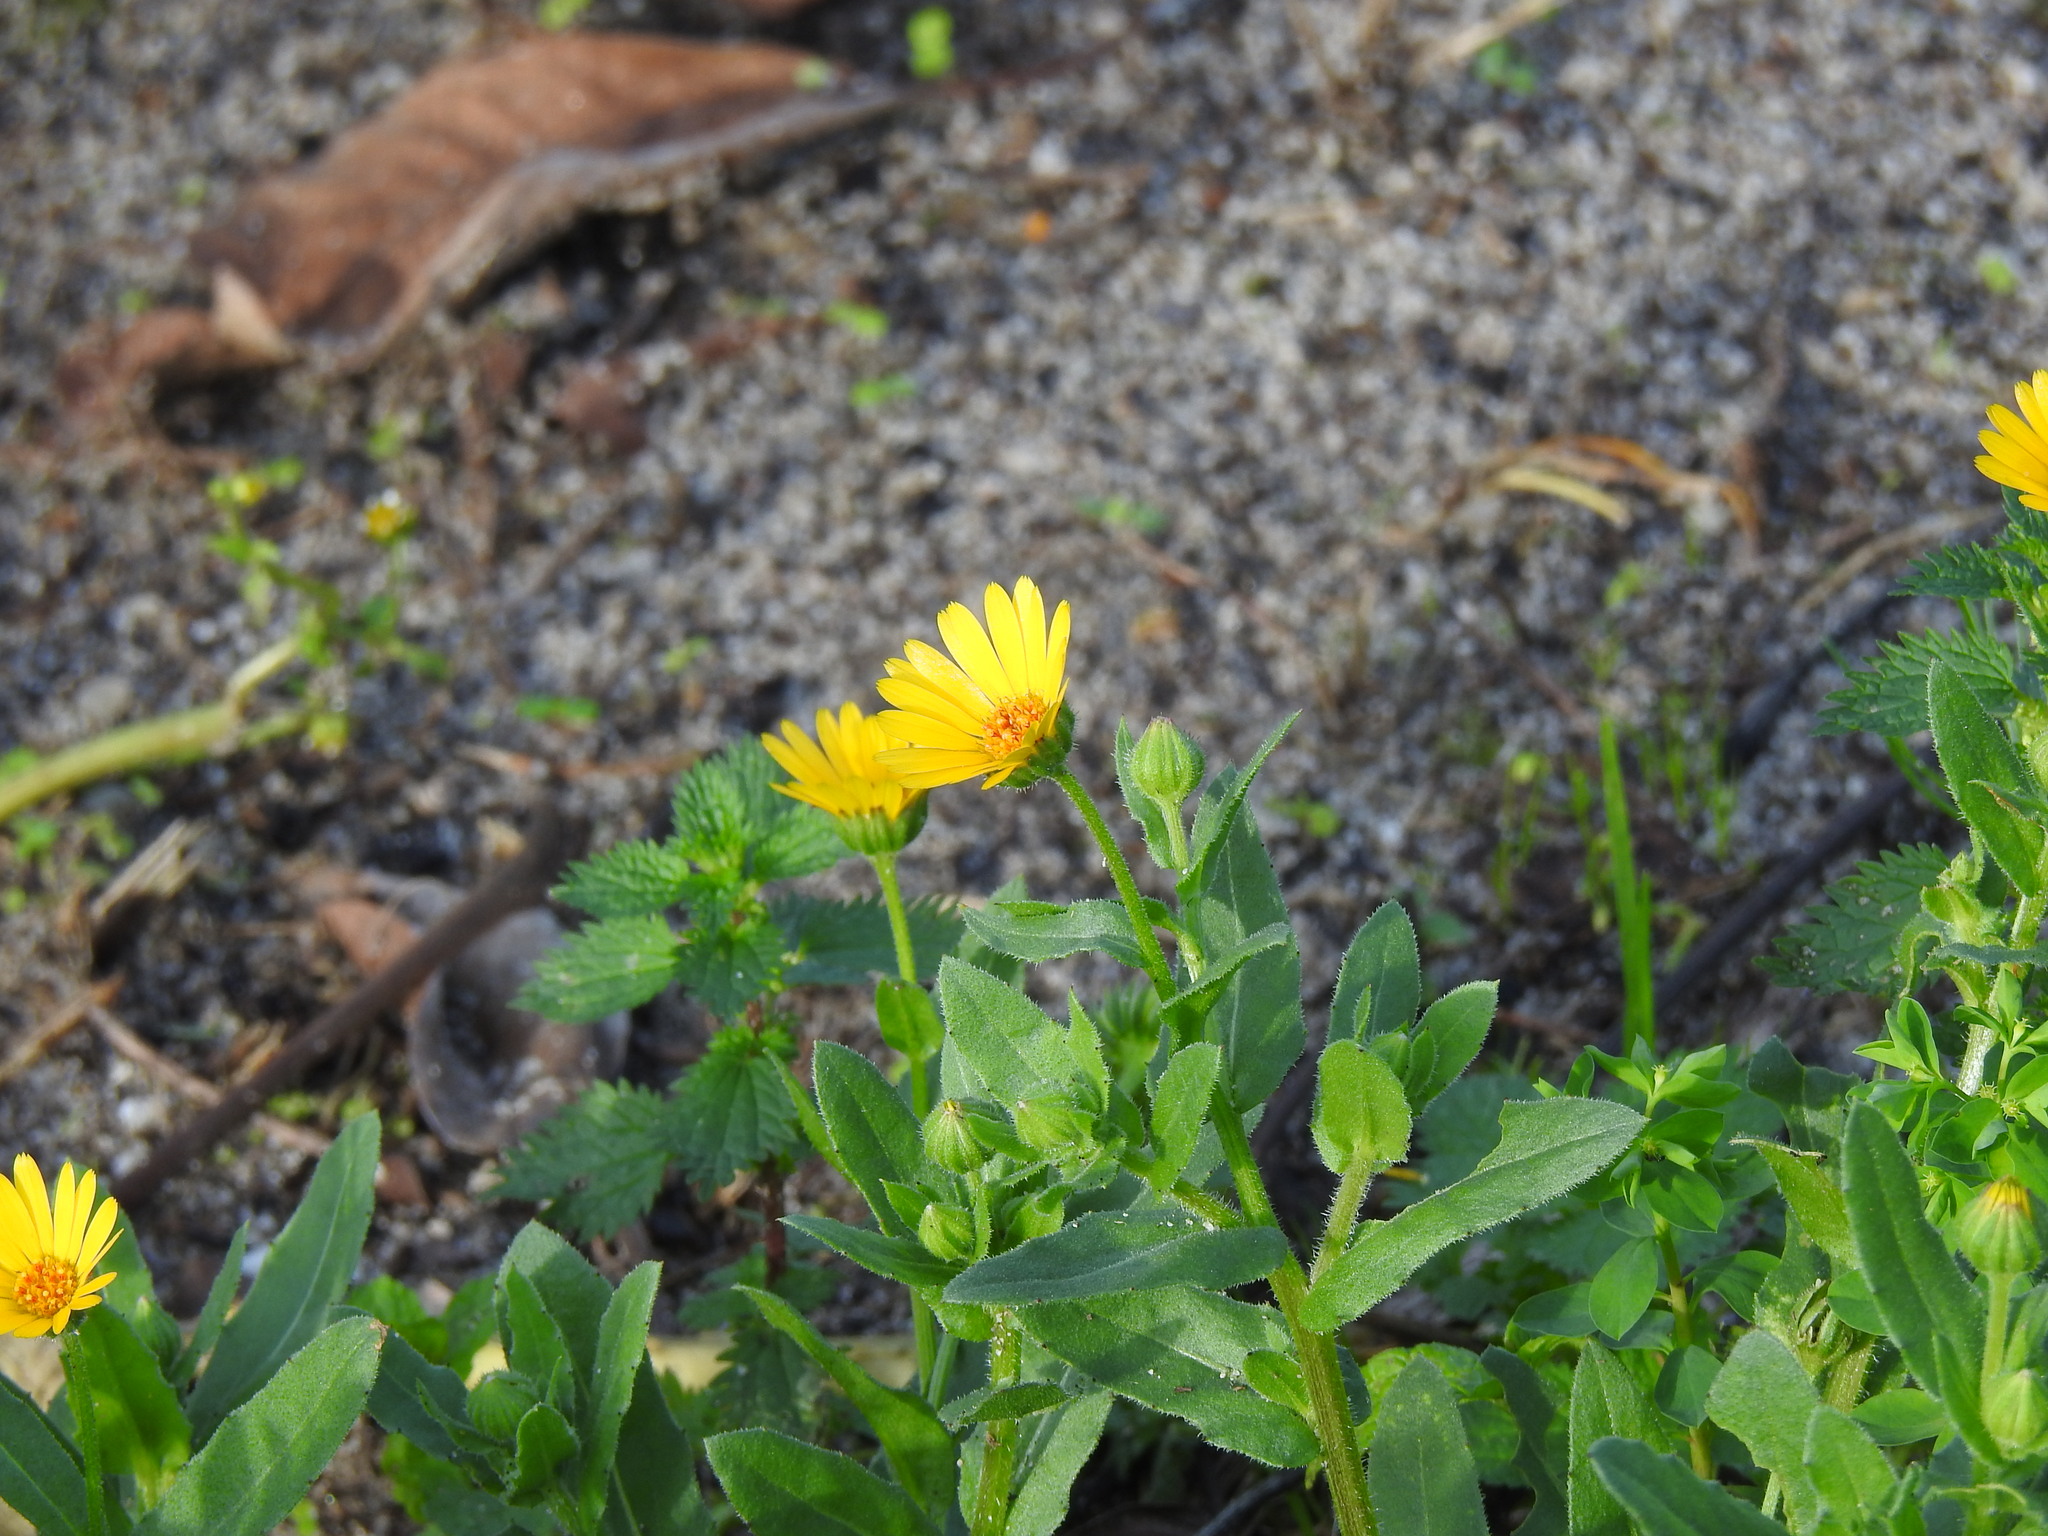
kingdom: Plantae
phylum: Tracheophyta
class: Magnoliopsida
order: Asterales
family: Asteraceae
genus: Calendula
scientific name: Calendula arvensis
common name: Field marigold
